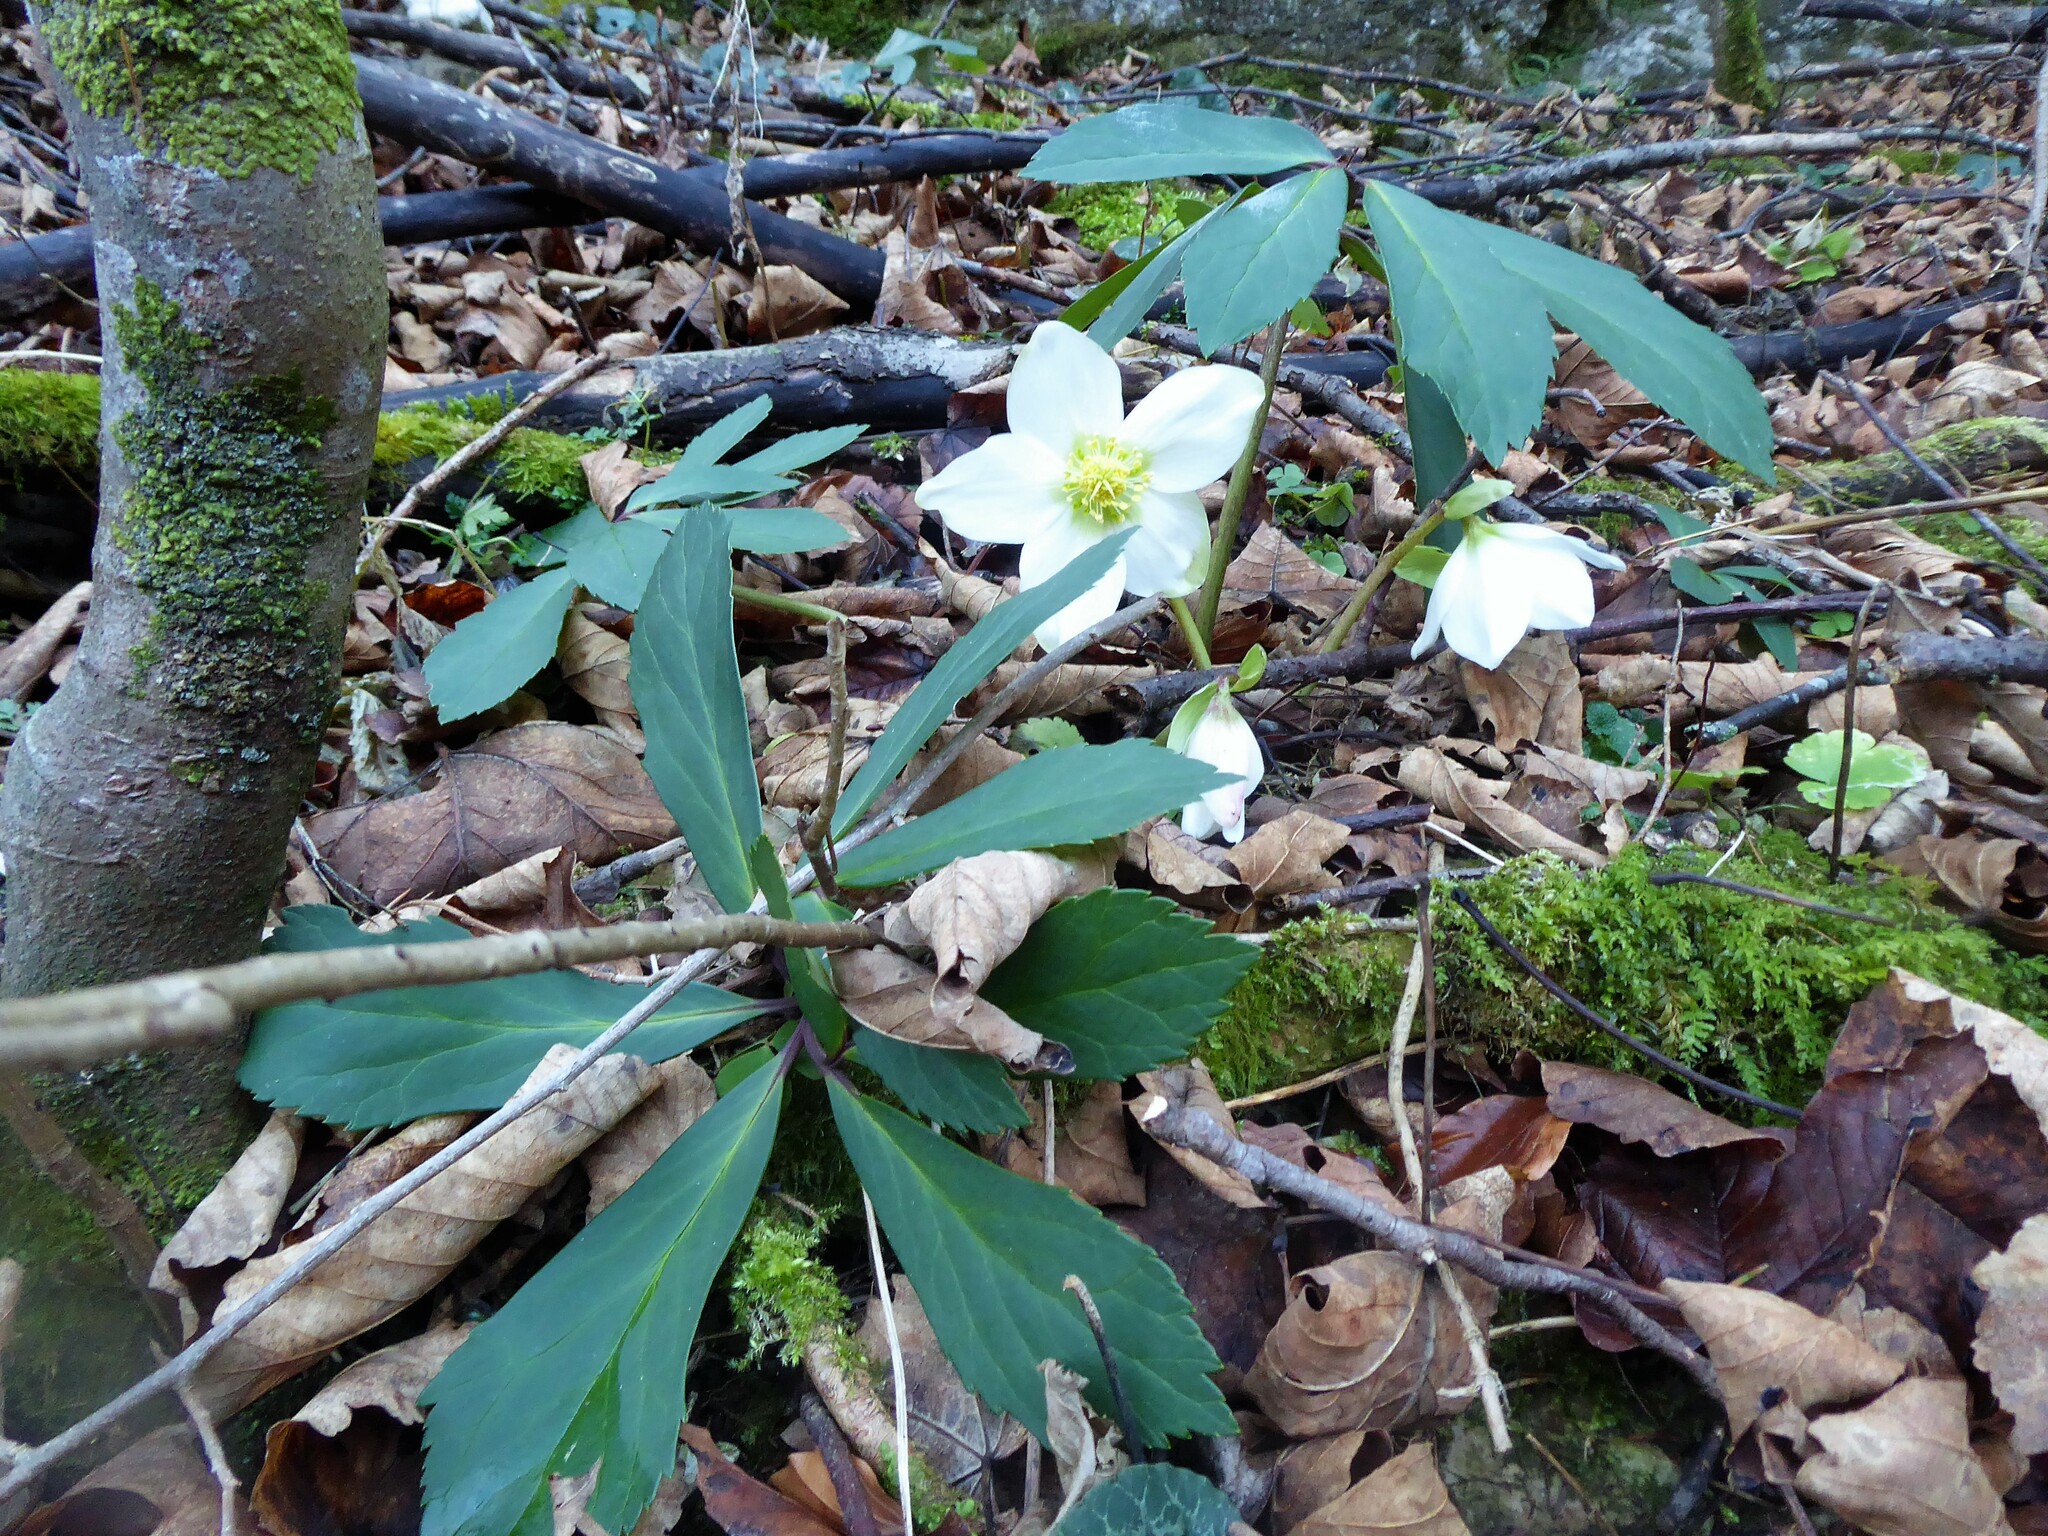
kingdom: Plantae
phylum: Tracheophyta
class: Magnoliopsida
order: Ranunculales
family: Ranunculaceae
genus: Helleborus
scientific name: Helleborus niger
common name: Black hellebore
